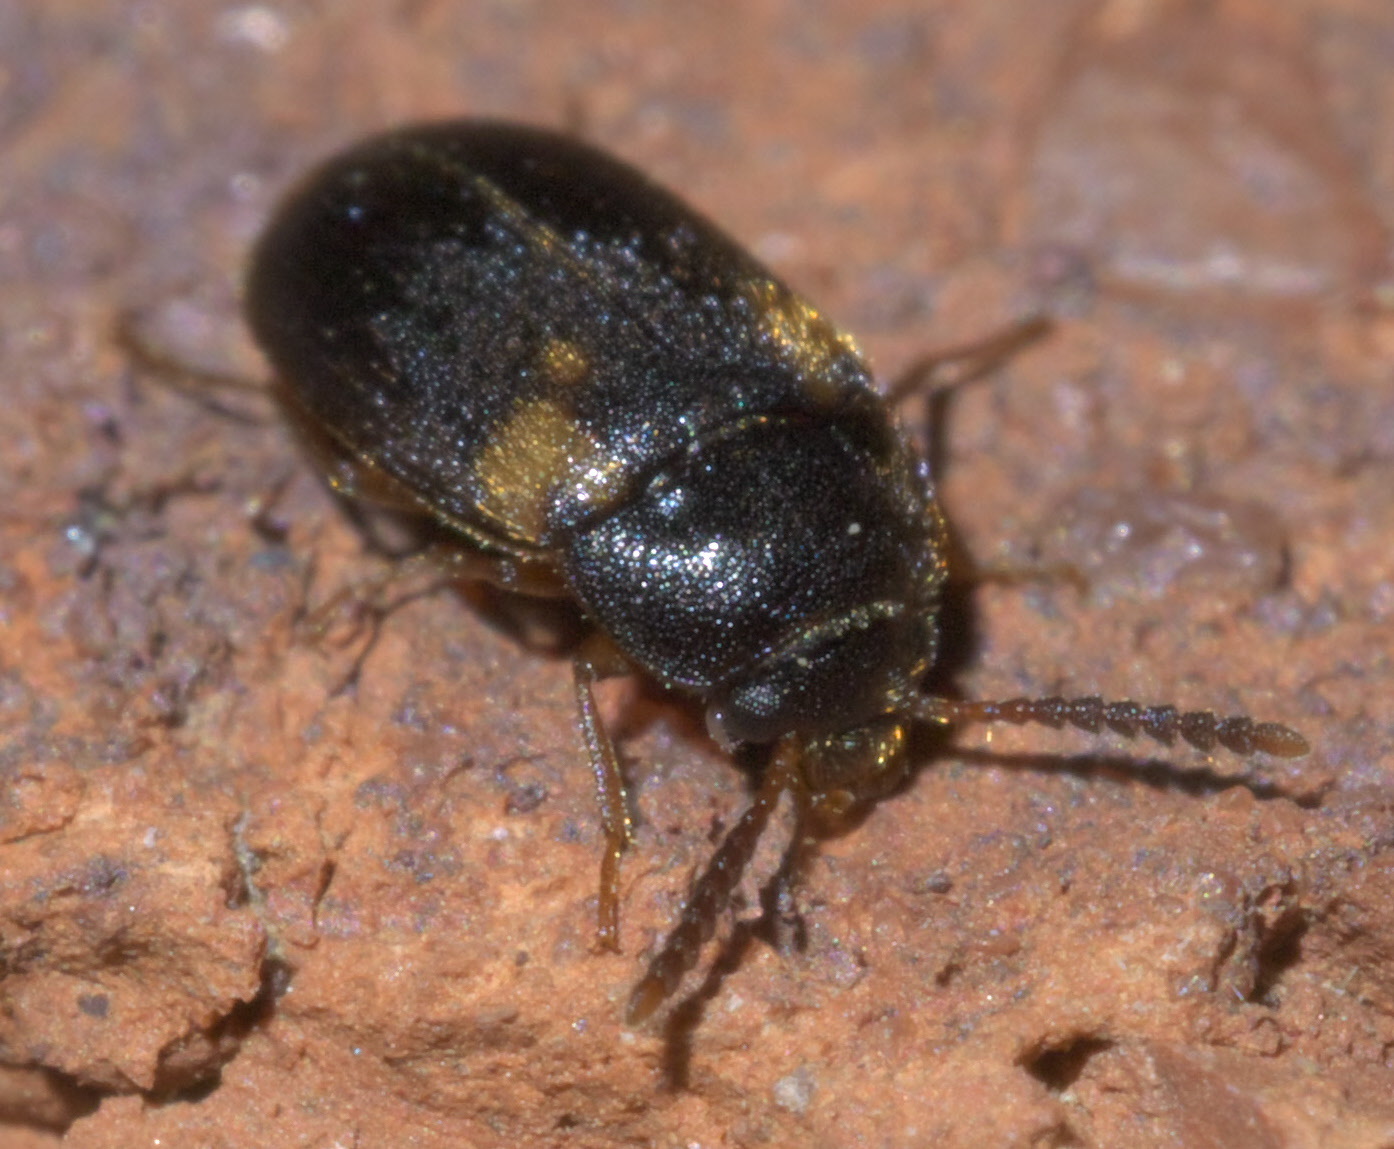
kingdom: Animalia
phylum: Arthropoda
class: Insecta
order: Coleoptera
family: Mycetophagidae
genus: Mycetophagus
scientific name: Mycetophagus serrulatus
